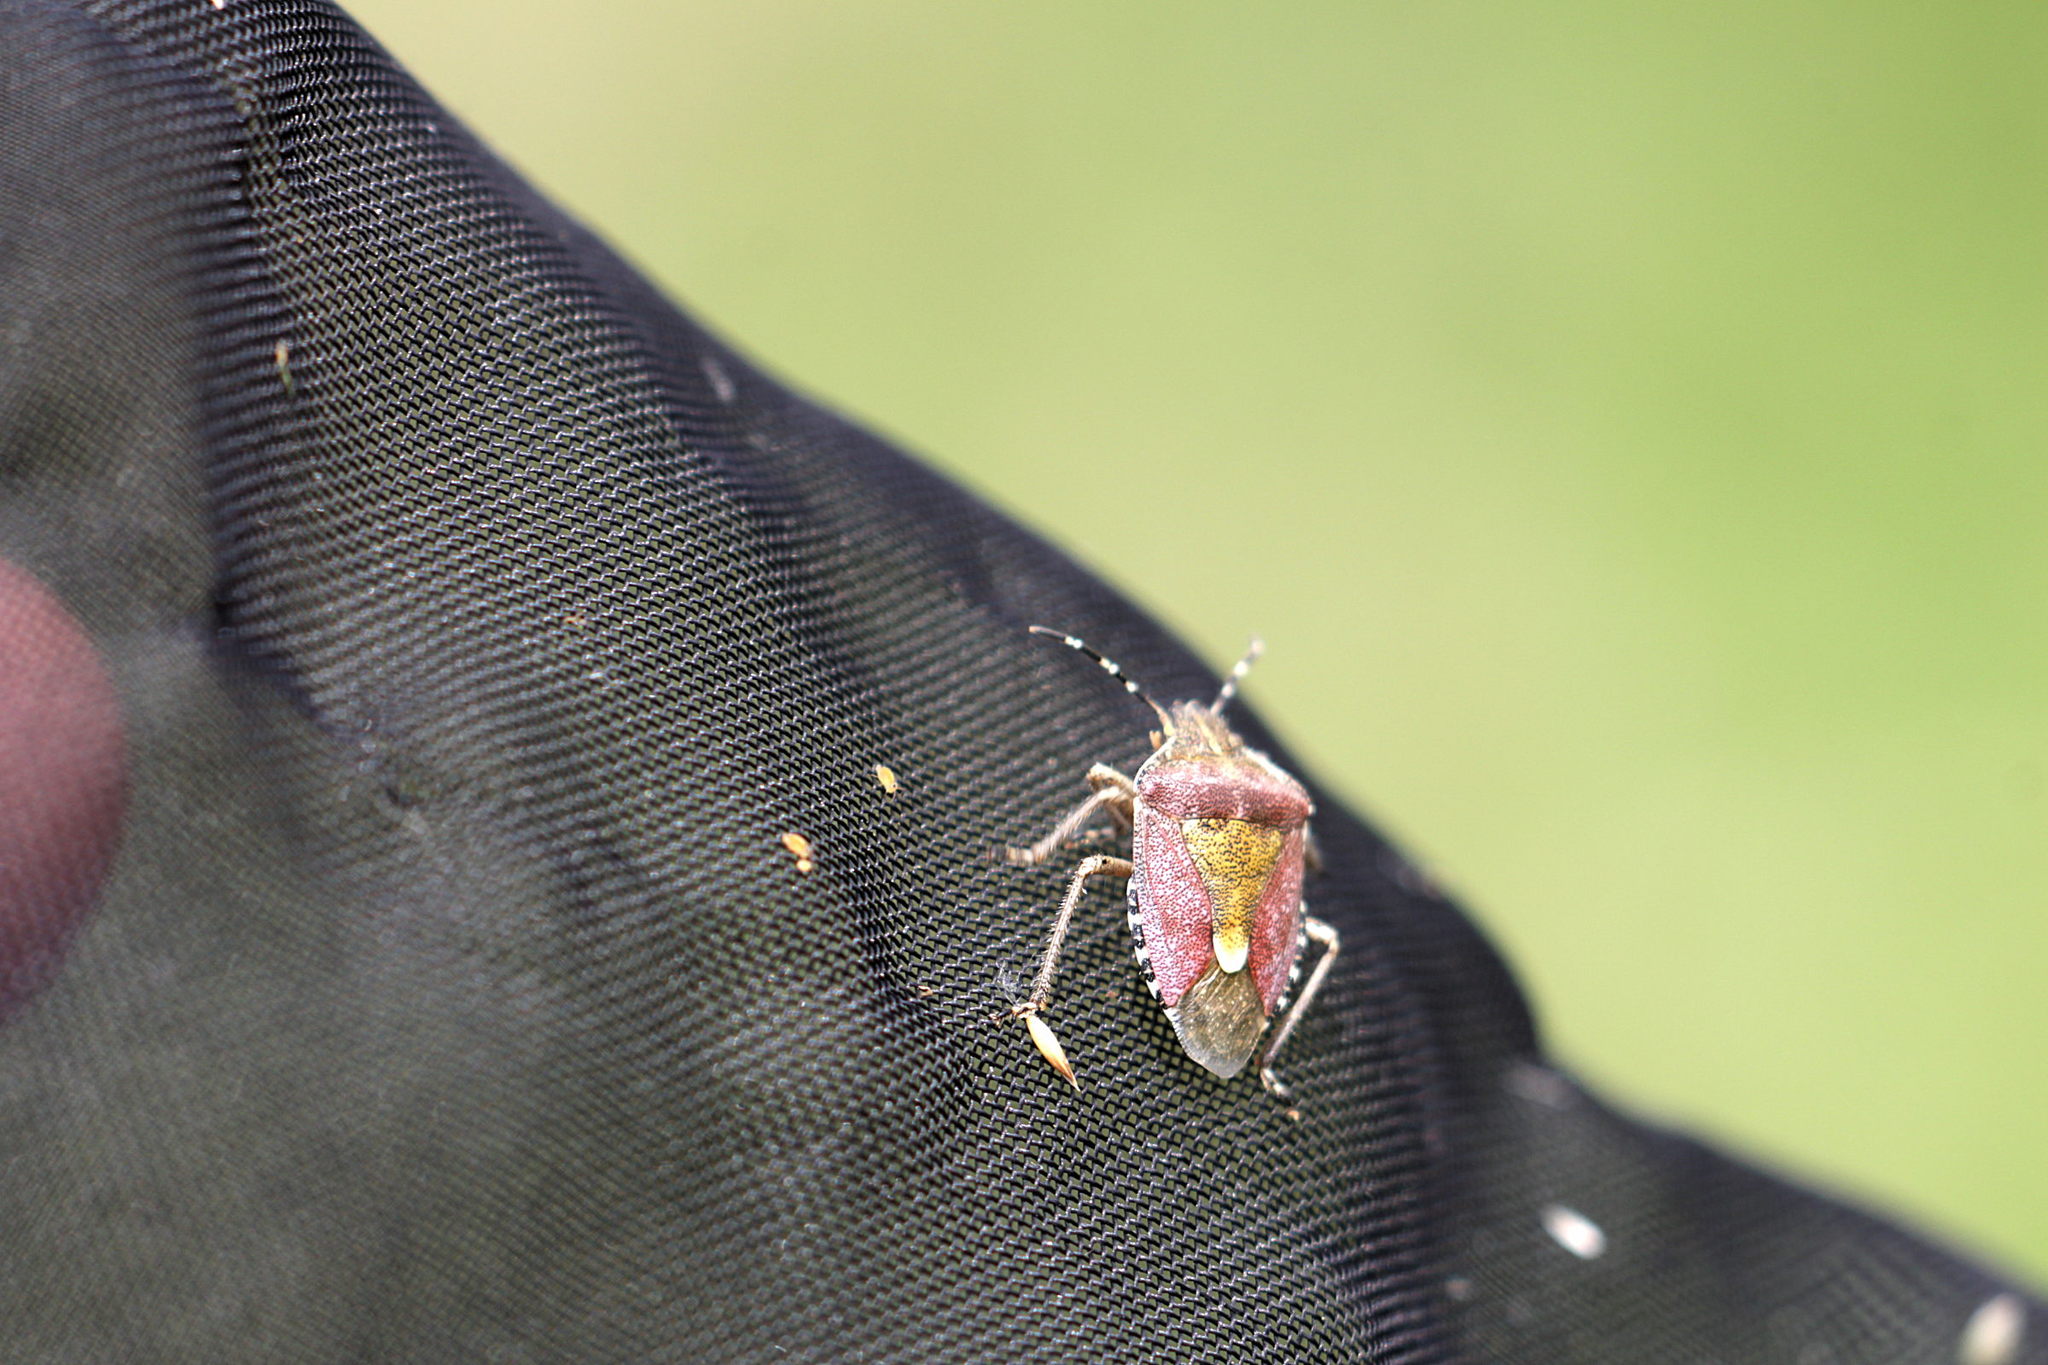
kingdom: Animalia
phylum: Arthropoda
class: Insecta
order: Hemiptera
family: Pentatomidae
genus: Dolycoris
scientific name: Dolycoris baccarum
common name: Sloe bug
